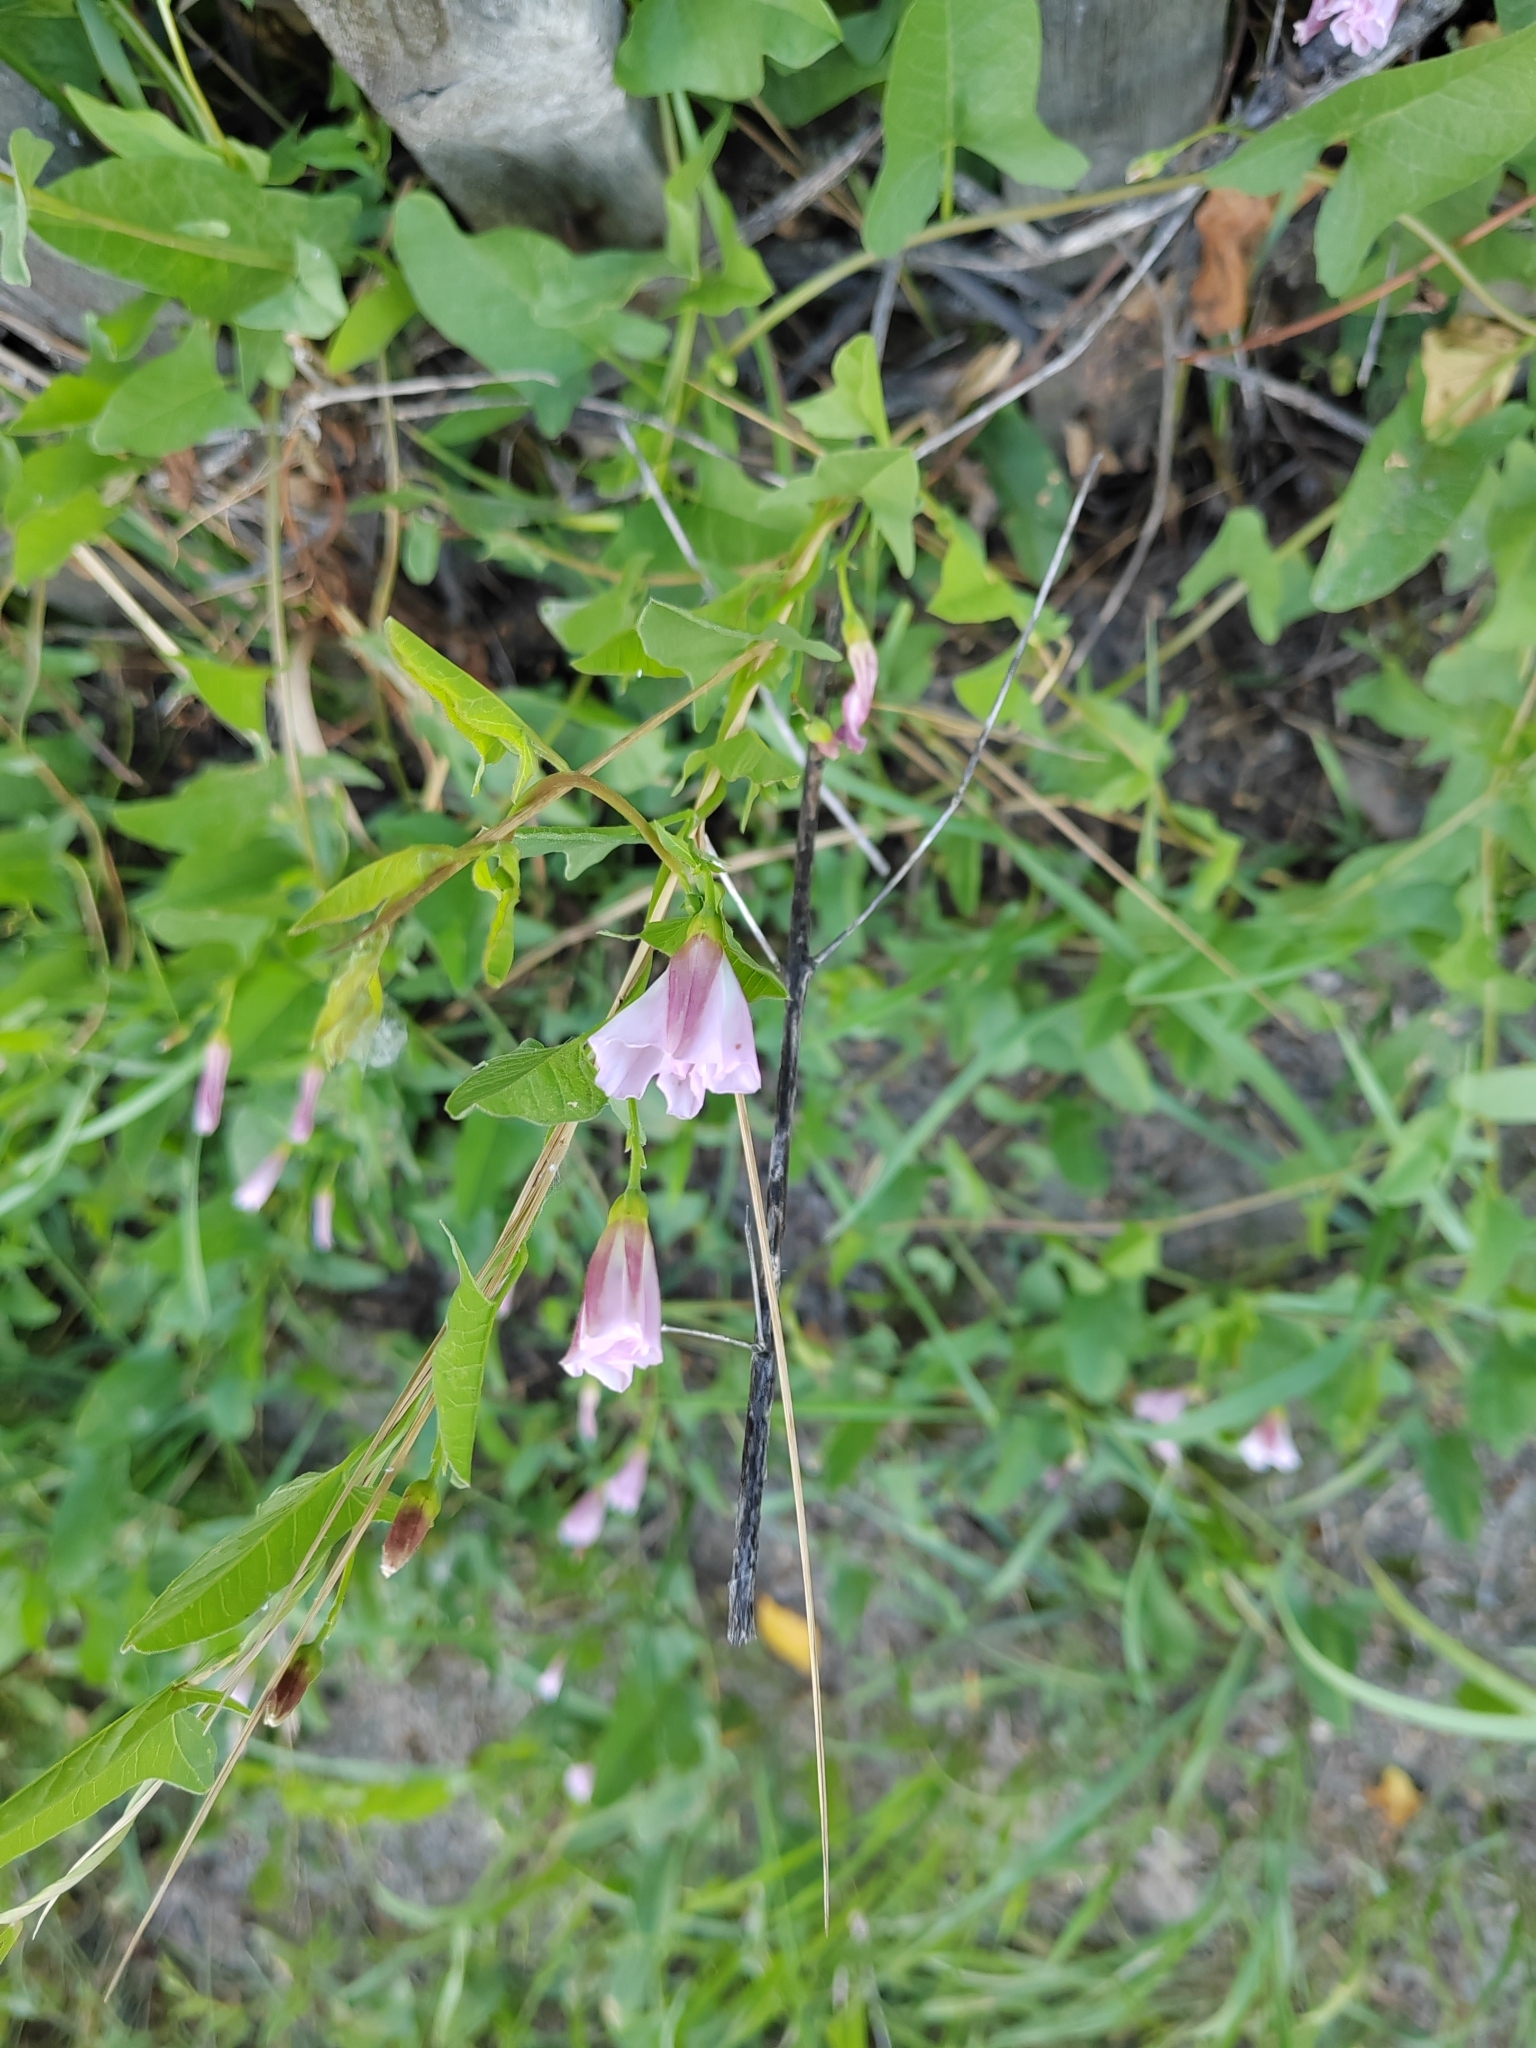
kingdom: Plantae
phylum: Tracheophyta
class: Magnoliopsida
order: Solanales
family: Convolvulaceae
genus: Convolvulus
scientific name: Convolvulus arvensis
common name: Field bindweed
